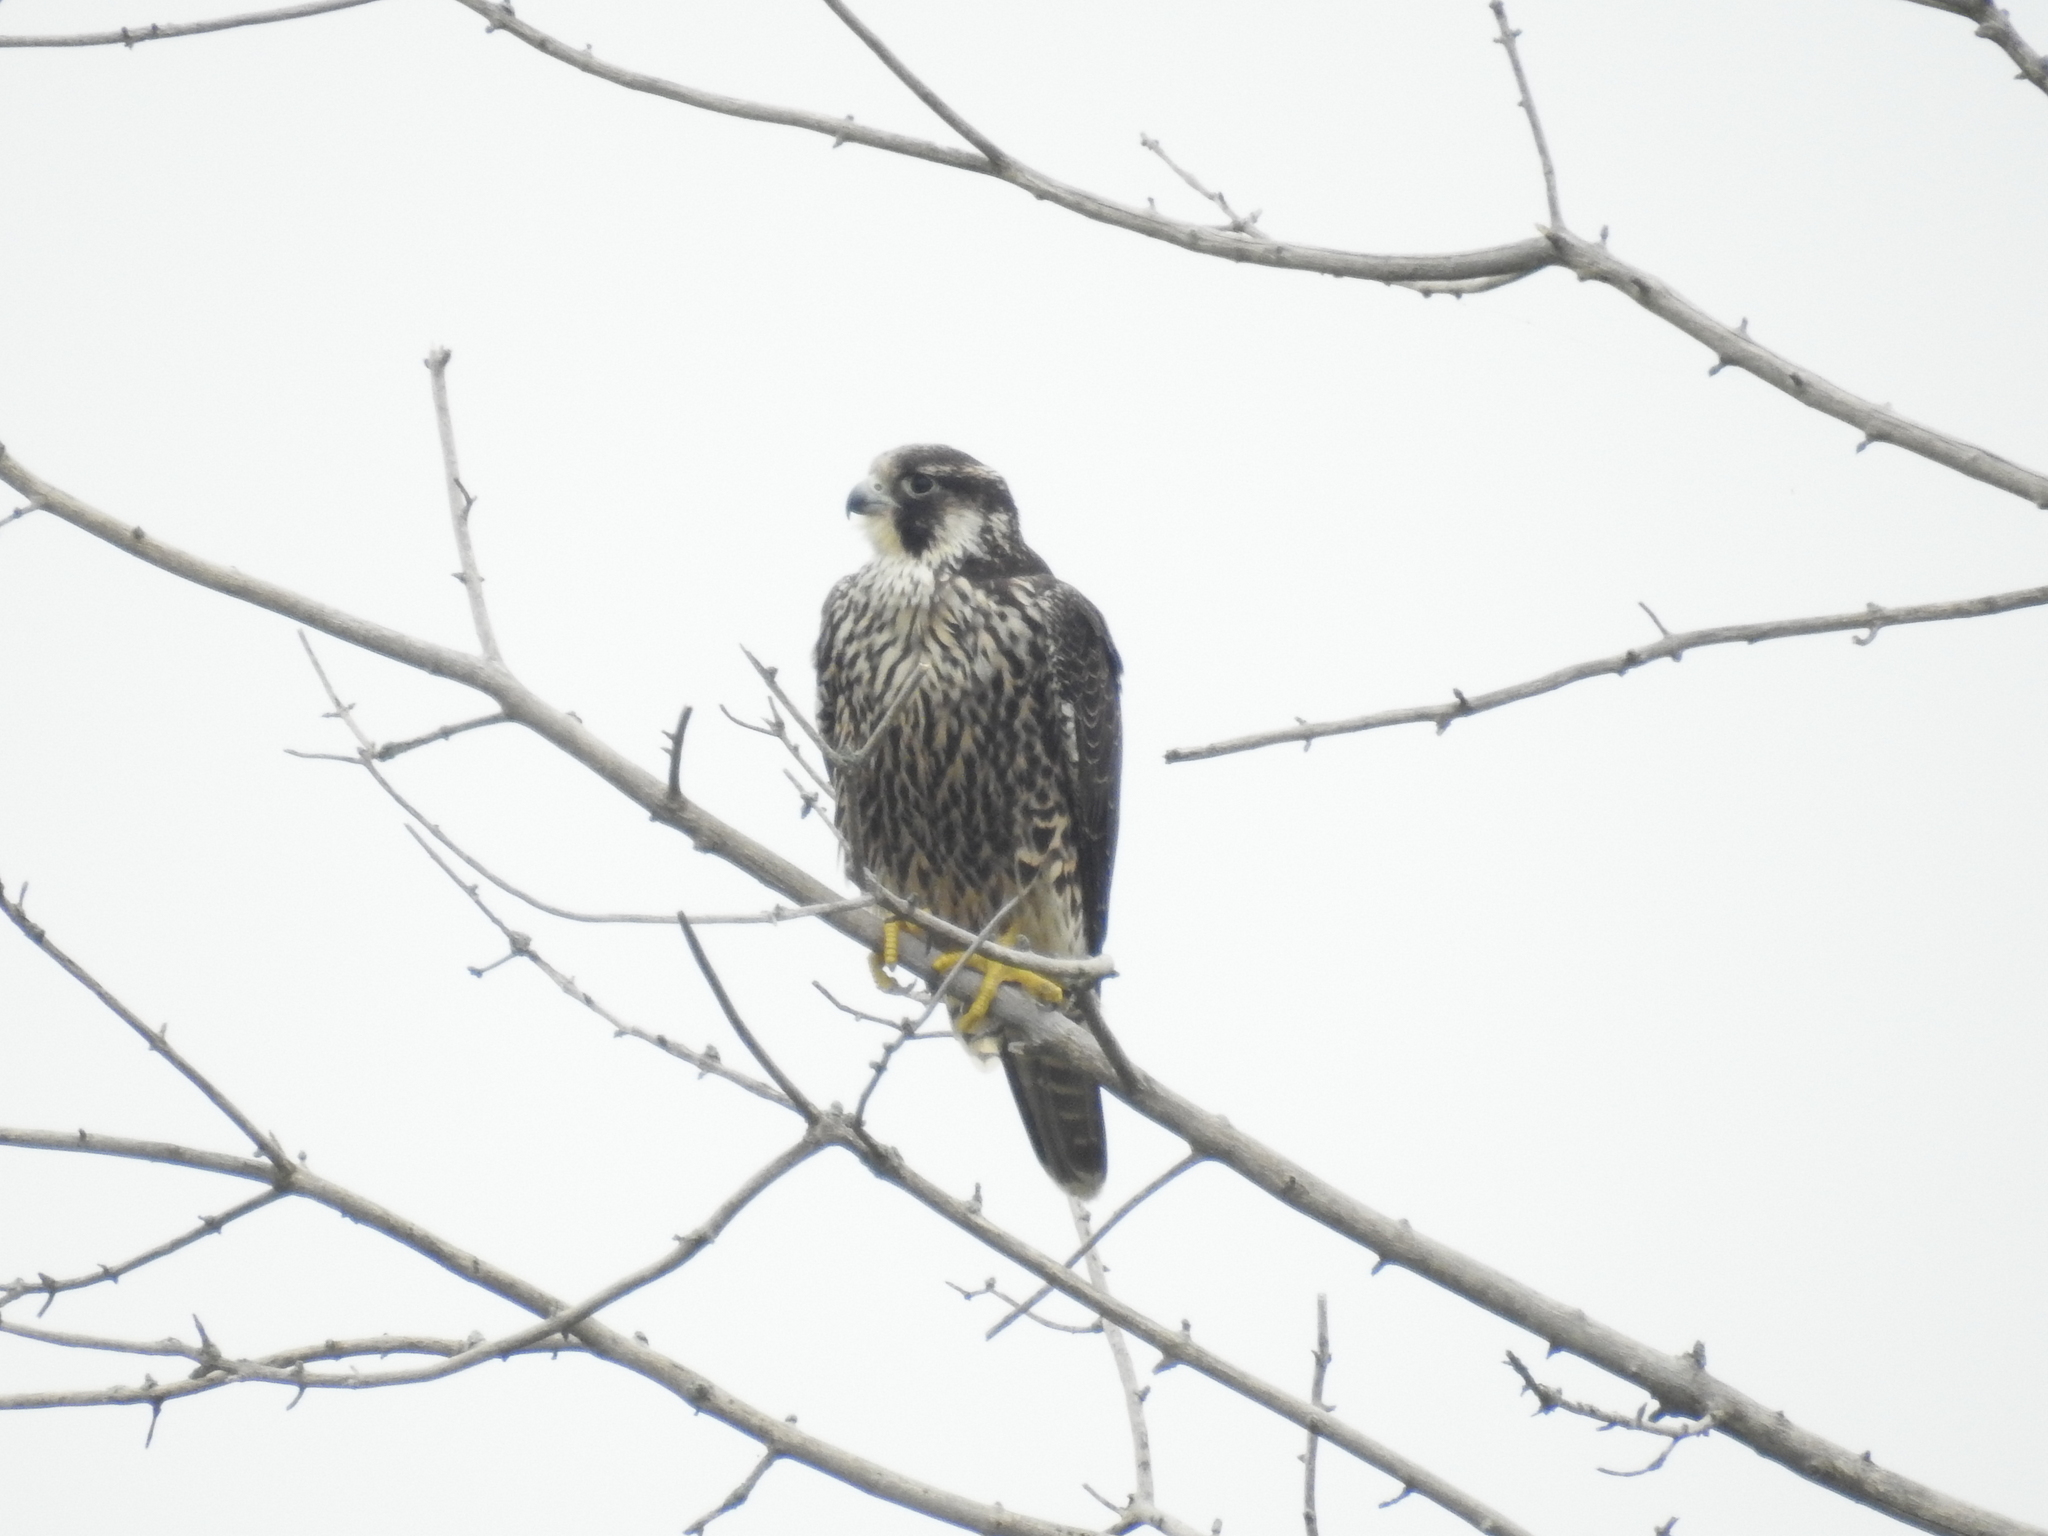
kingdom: Animalia
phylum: Chordata
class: Aves
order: Falconiformes
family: Falconidae
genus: Falco
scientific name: Falco peregrinus
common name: Peregrine falcon
